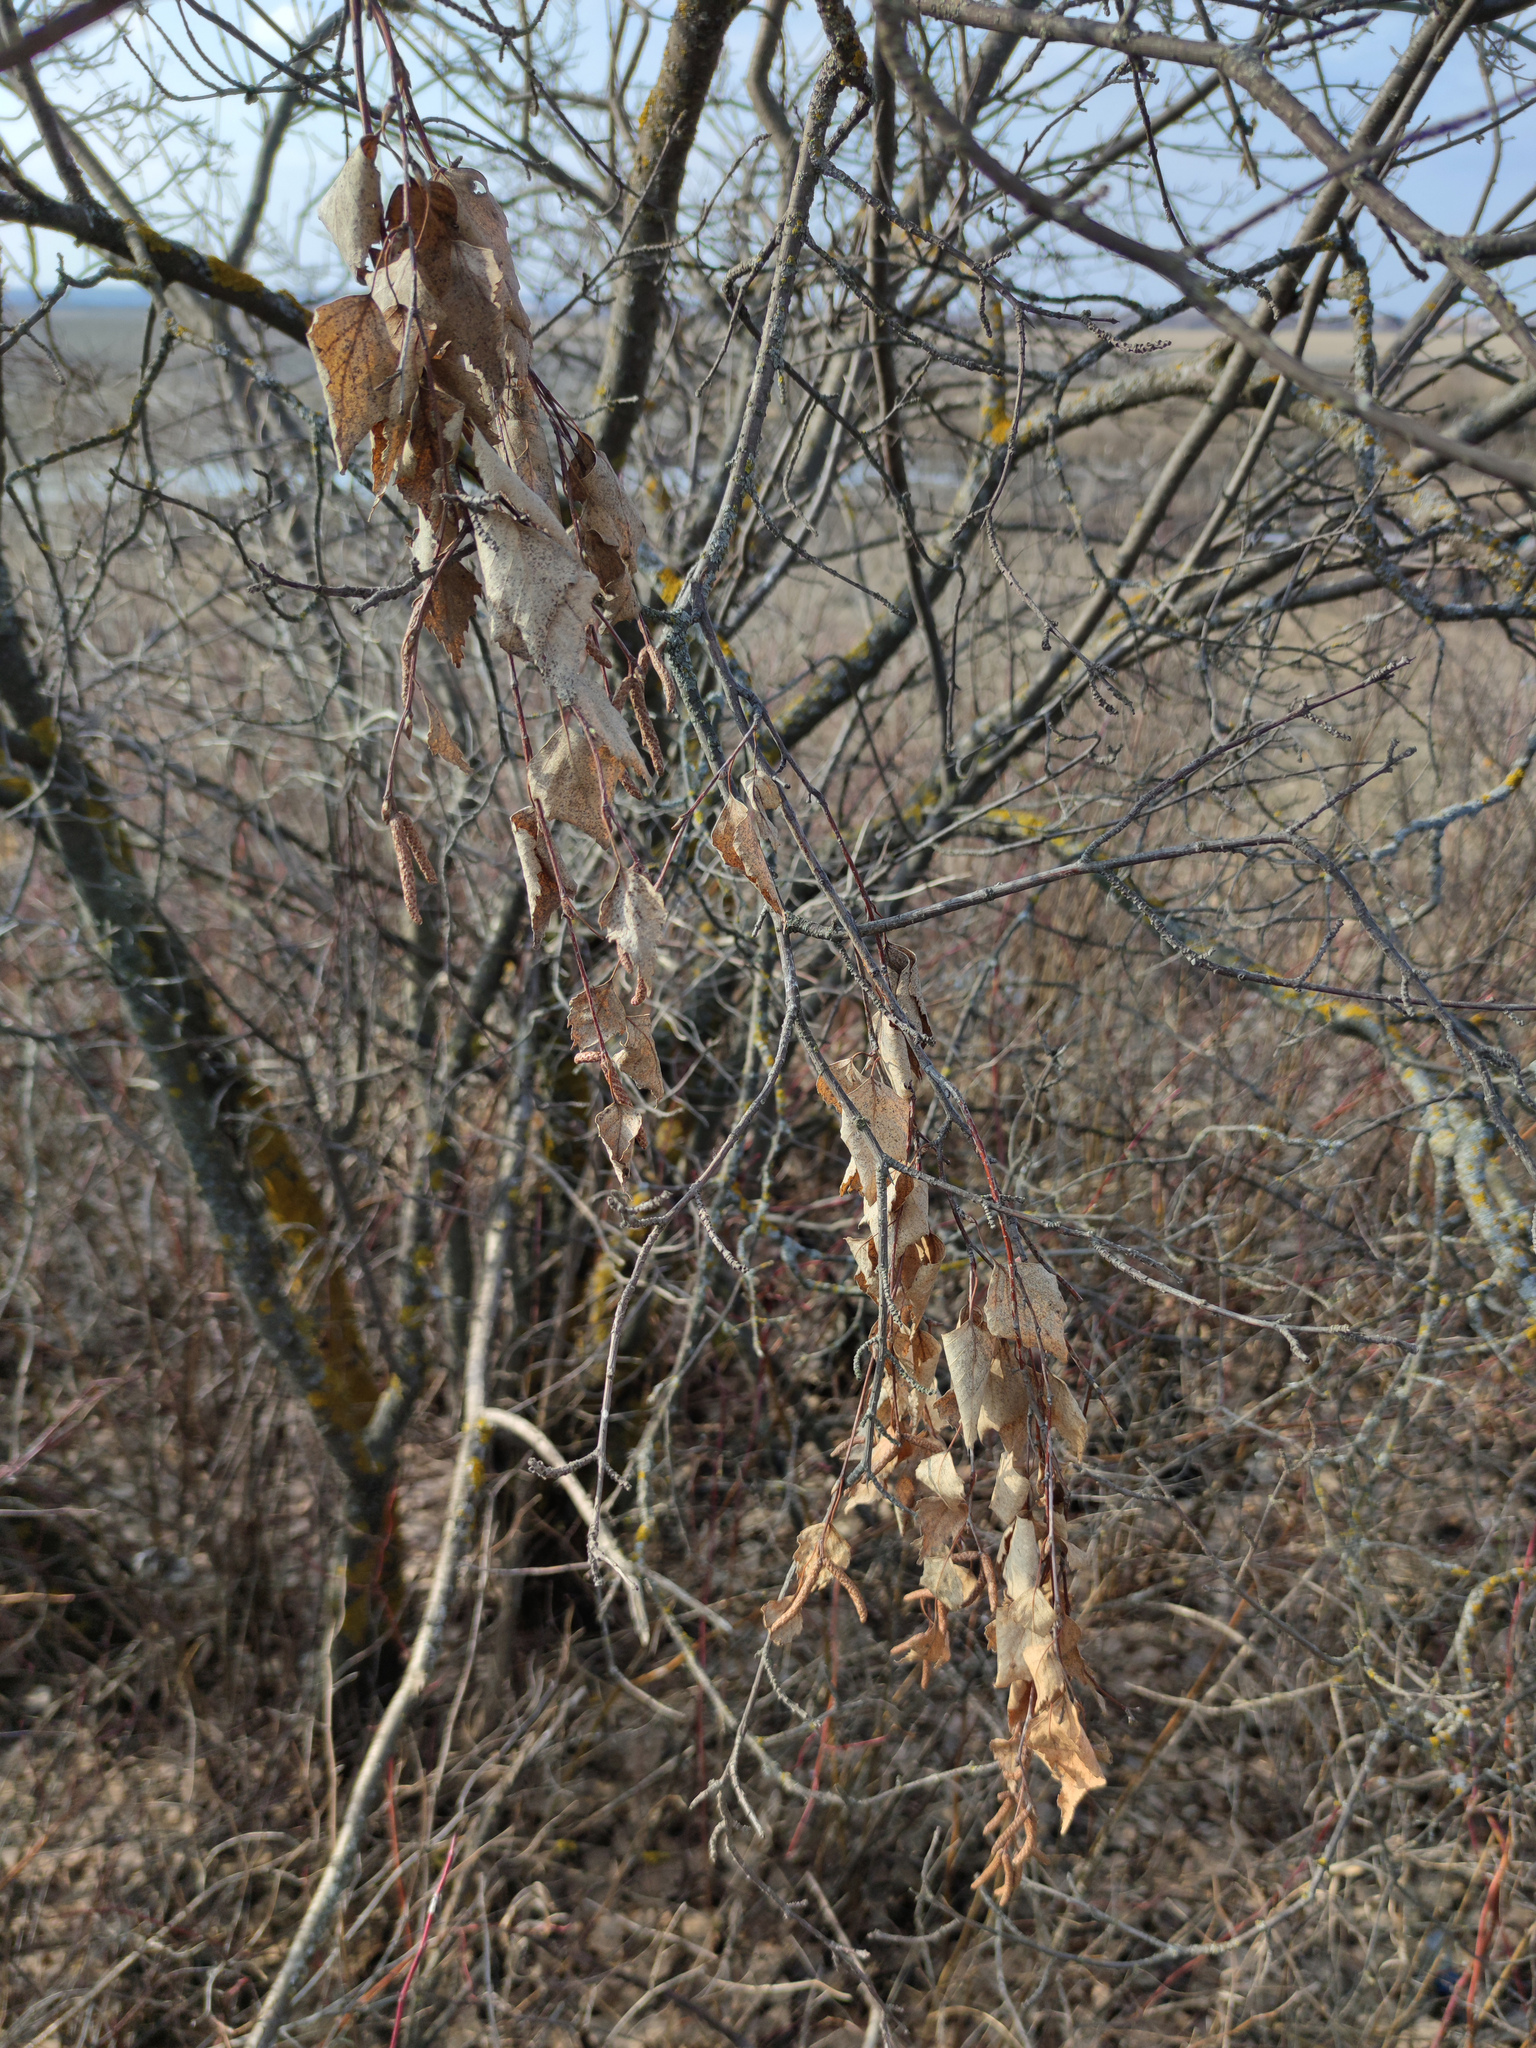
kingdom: Plantae
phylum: Tracheophyta
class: Magnoliopsida
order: Fagales
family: Betulaceae
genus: Betula
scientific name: Betula pendula
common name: Silver birch
